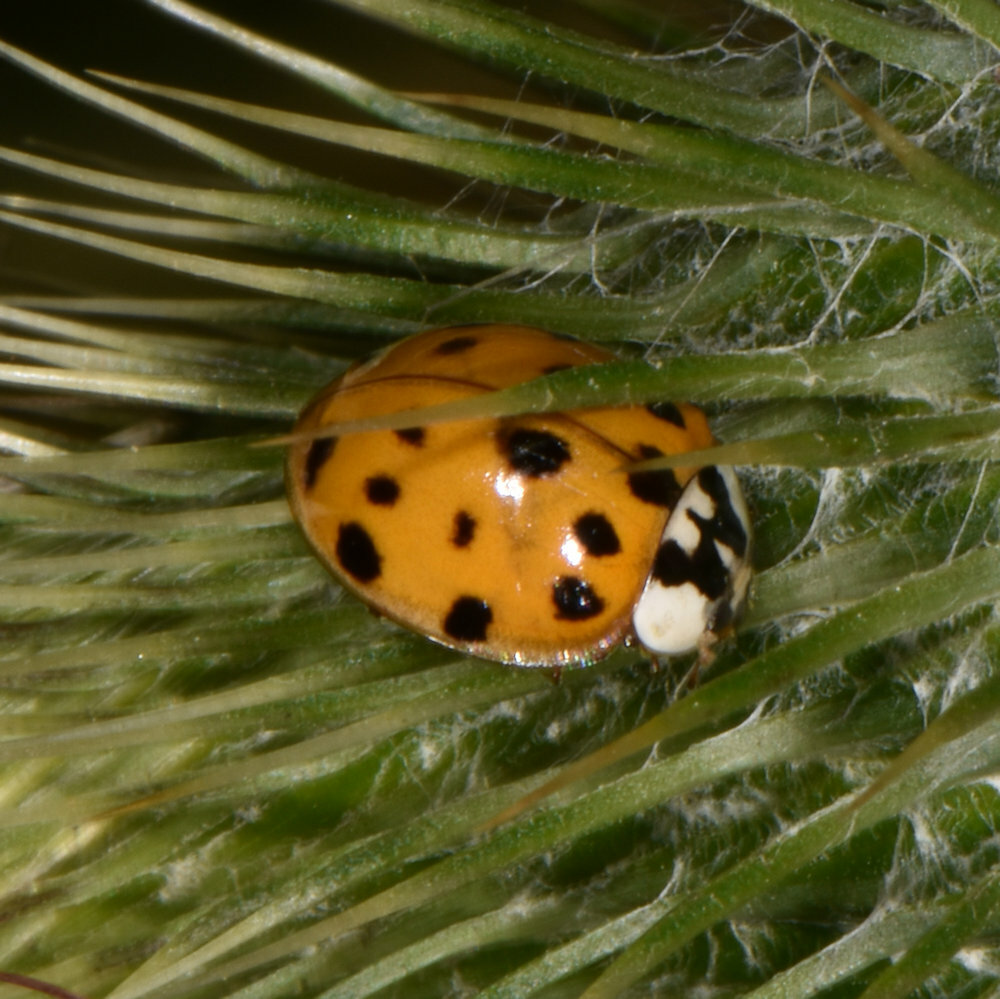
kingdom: Animalia
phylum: Arthropoda
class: Insecta
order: Coleoptera
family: Coccinellidae
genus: Harmonia
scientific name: Harmonia axyridis
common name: Harlequin ladybird
